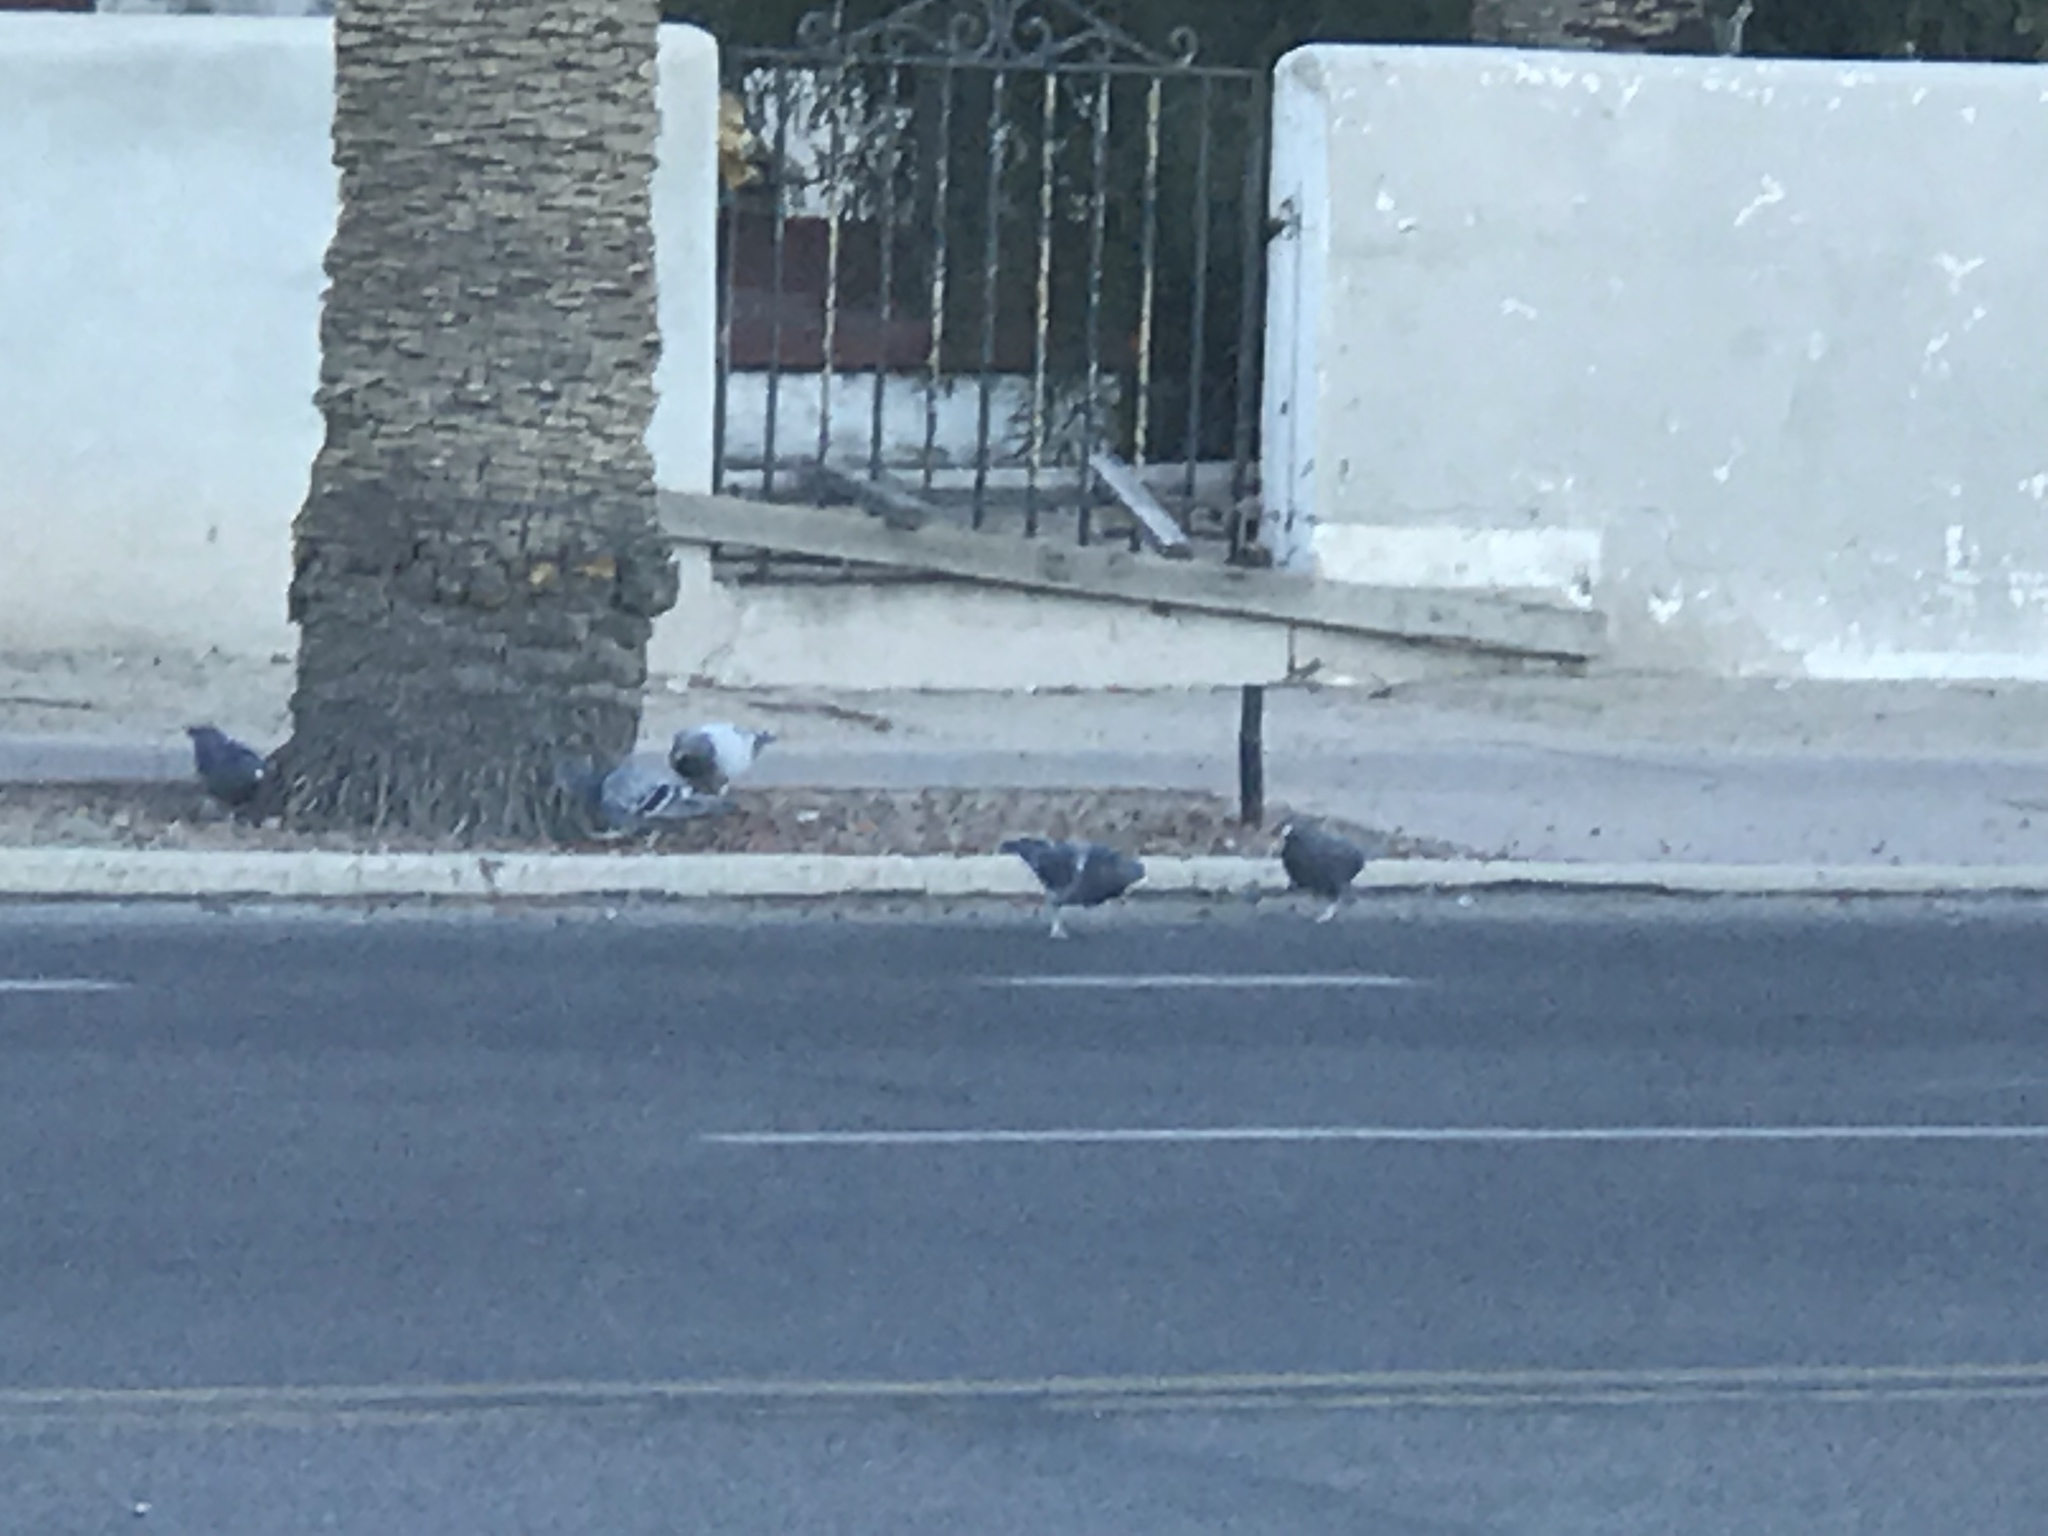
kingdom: Animalia
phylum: Chordata
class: Aves
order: Columbiformes
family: Columbidae
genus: Columba
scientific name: Columba livia
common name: Rock pigeon
